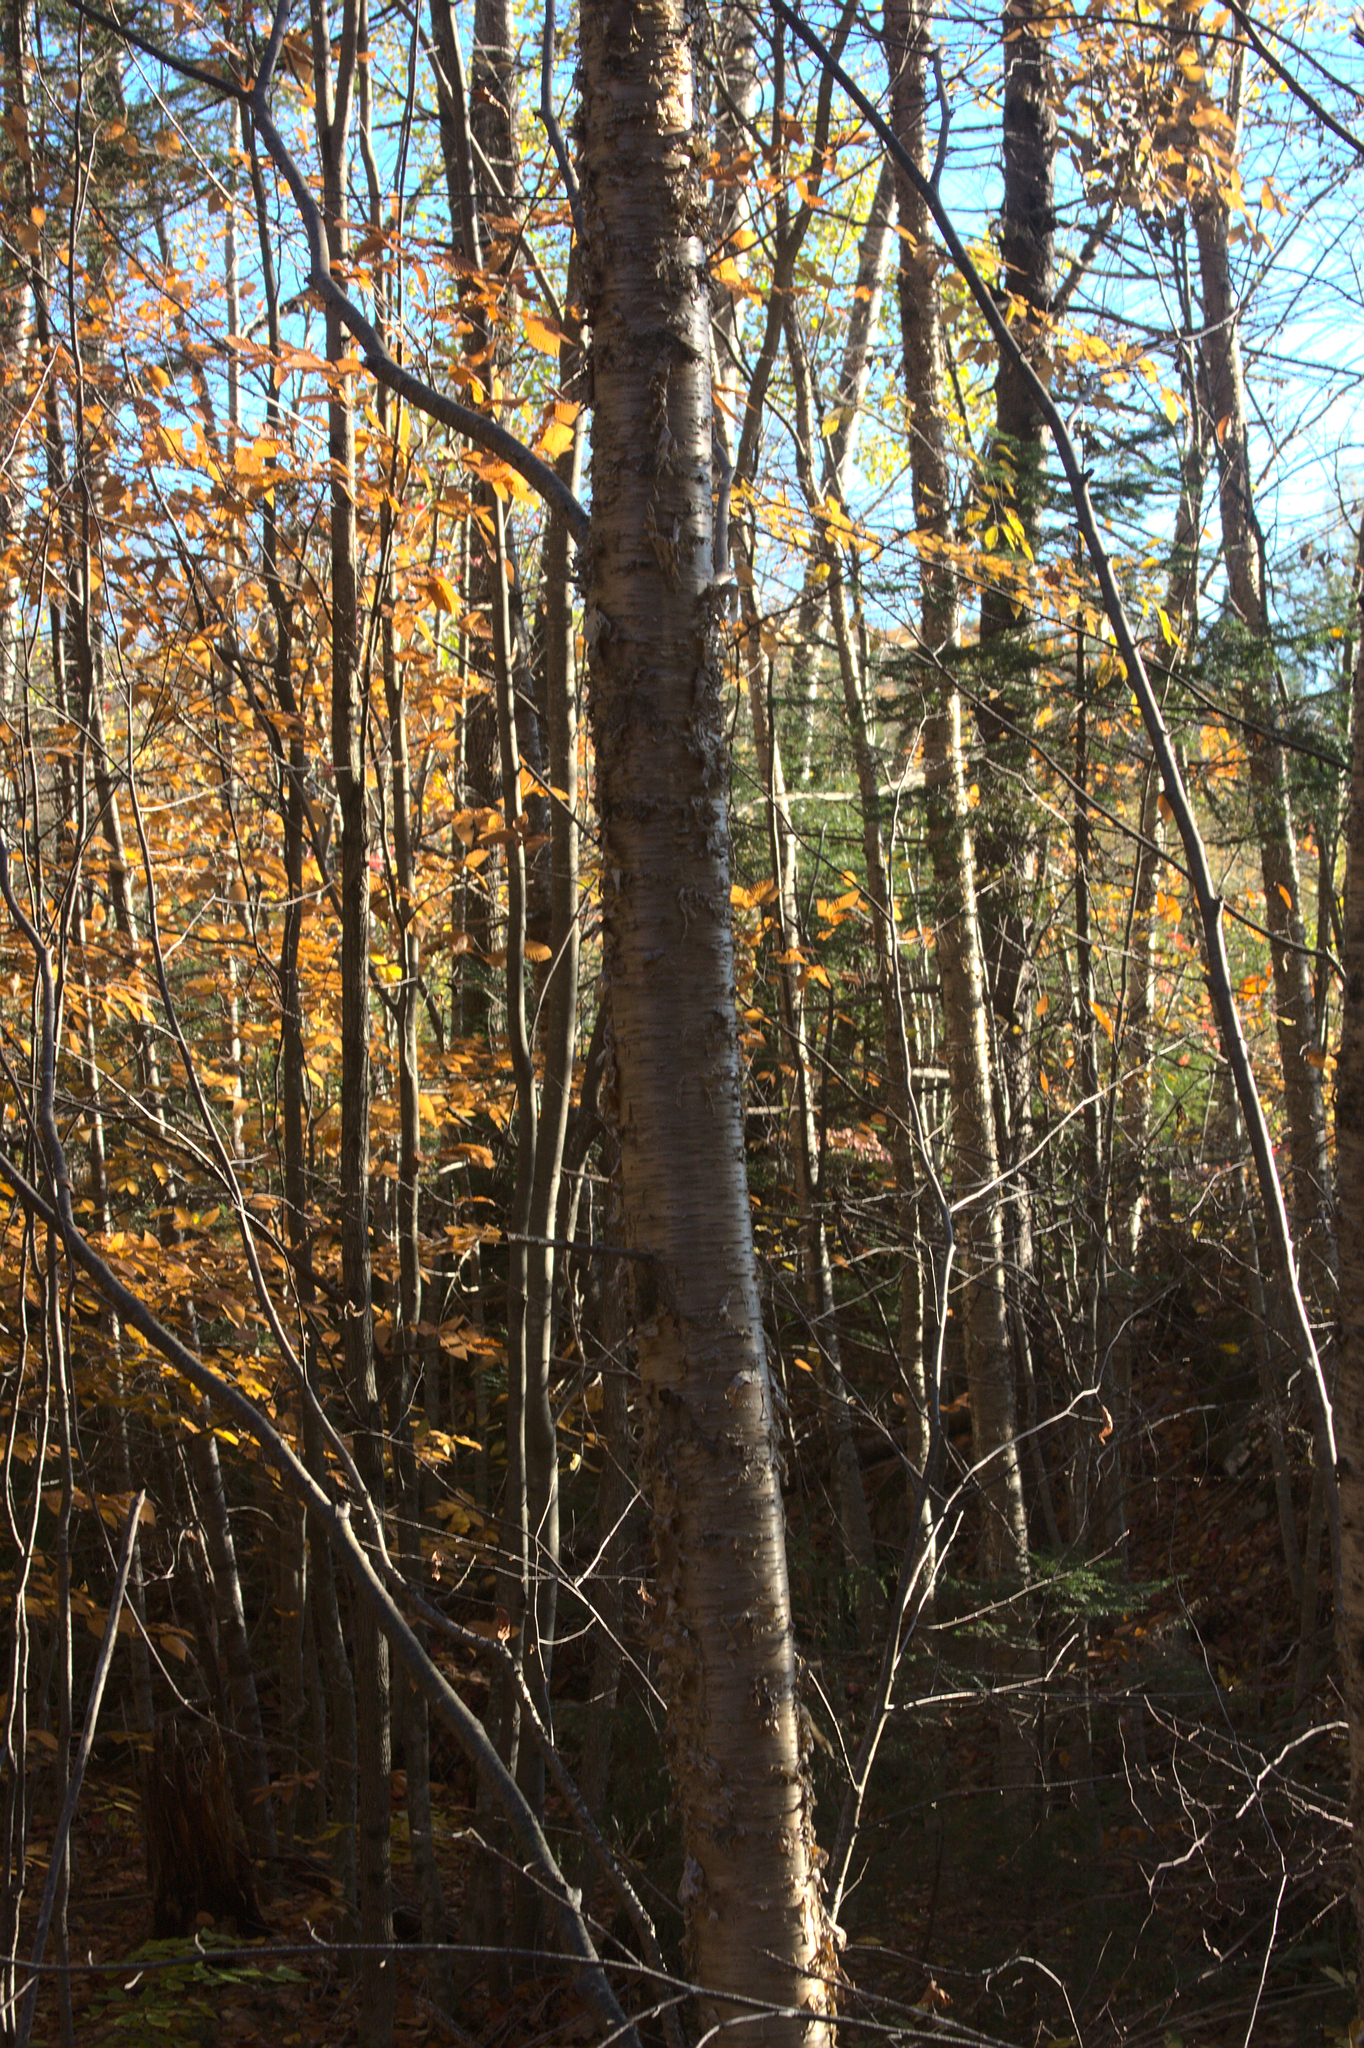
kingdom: Plantae
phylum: Tracheophyta
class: Magnoliopsida
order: Fagales
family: Betulaceae
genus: Betula
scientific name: Betula alleghaniensis
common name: Yellow birch
